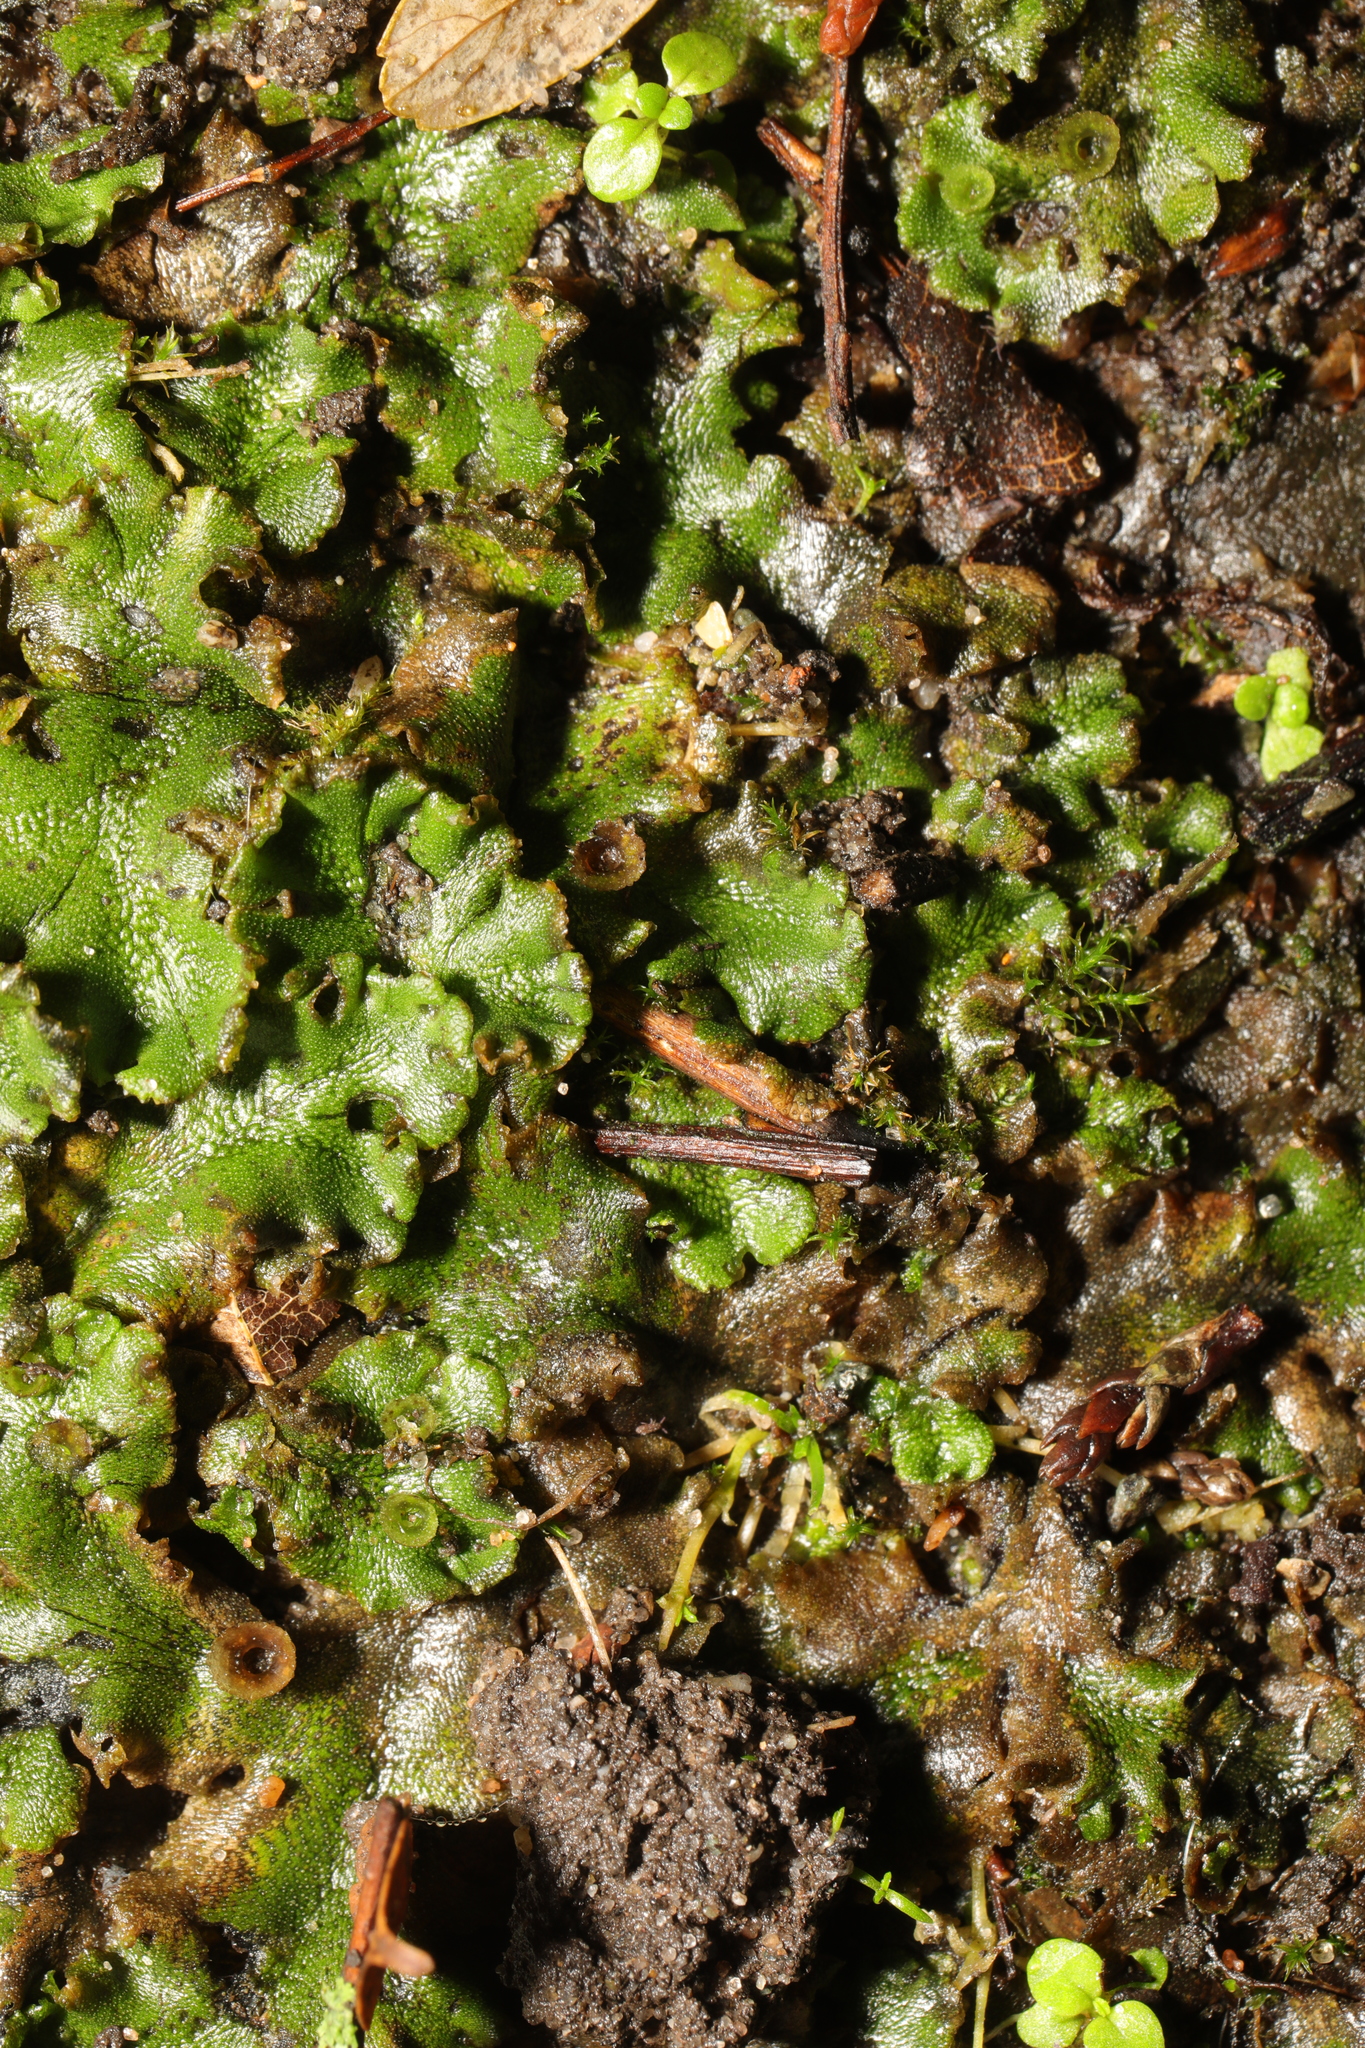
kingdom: Plantae
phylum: Marchantiophyta
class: Marchantiopsida
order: Marchantiales
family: Marchantiaceae
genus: Marchantia
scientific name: Marchantia polymorpha
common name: Common liverwort
